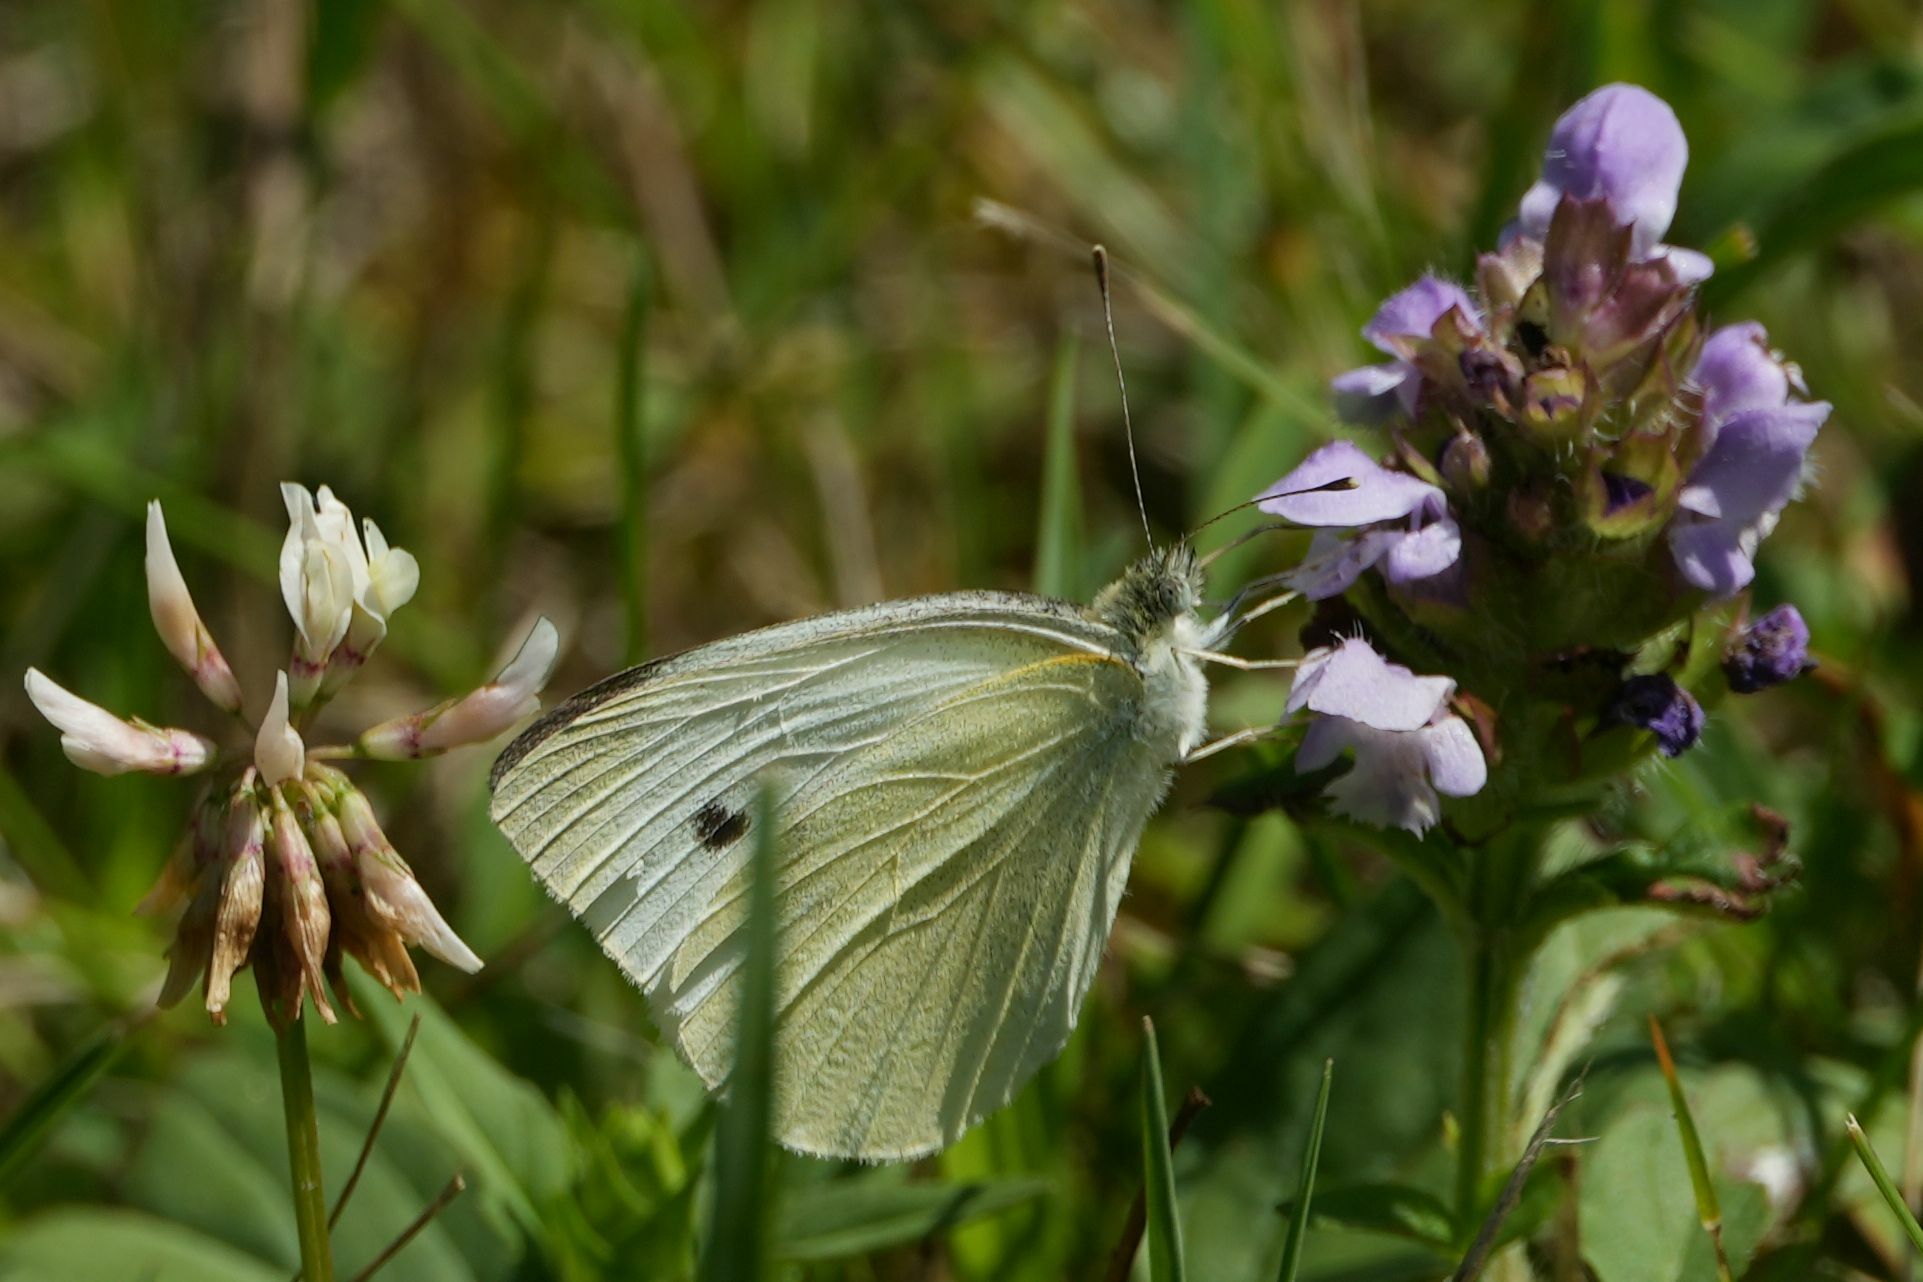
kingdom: Animalia
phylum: Arthropoda
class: Insecta
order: Lepidoptera
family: Pieridae
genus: Pieris
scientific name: Pieris rapae
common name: Small white
